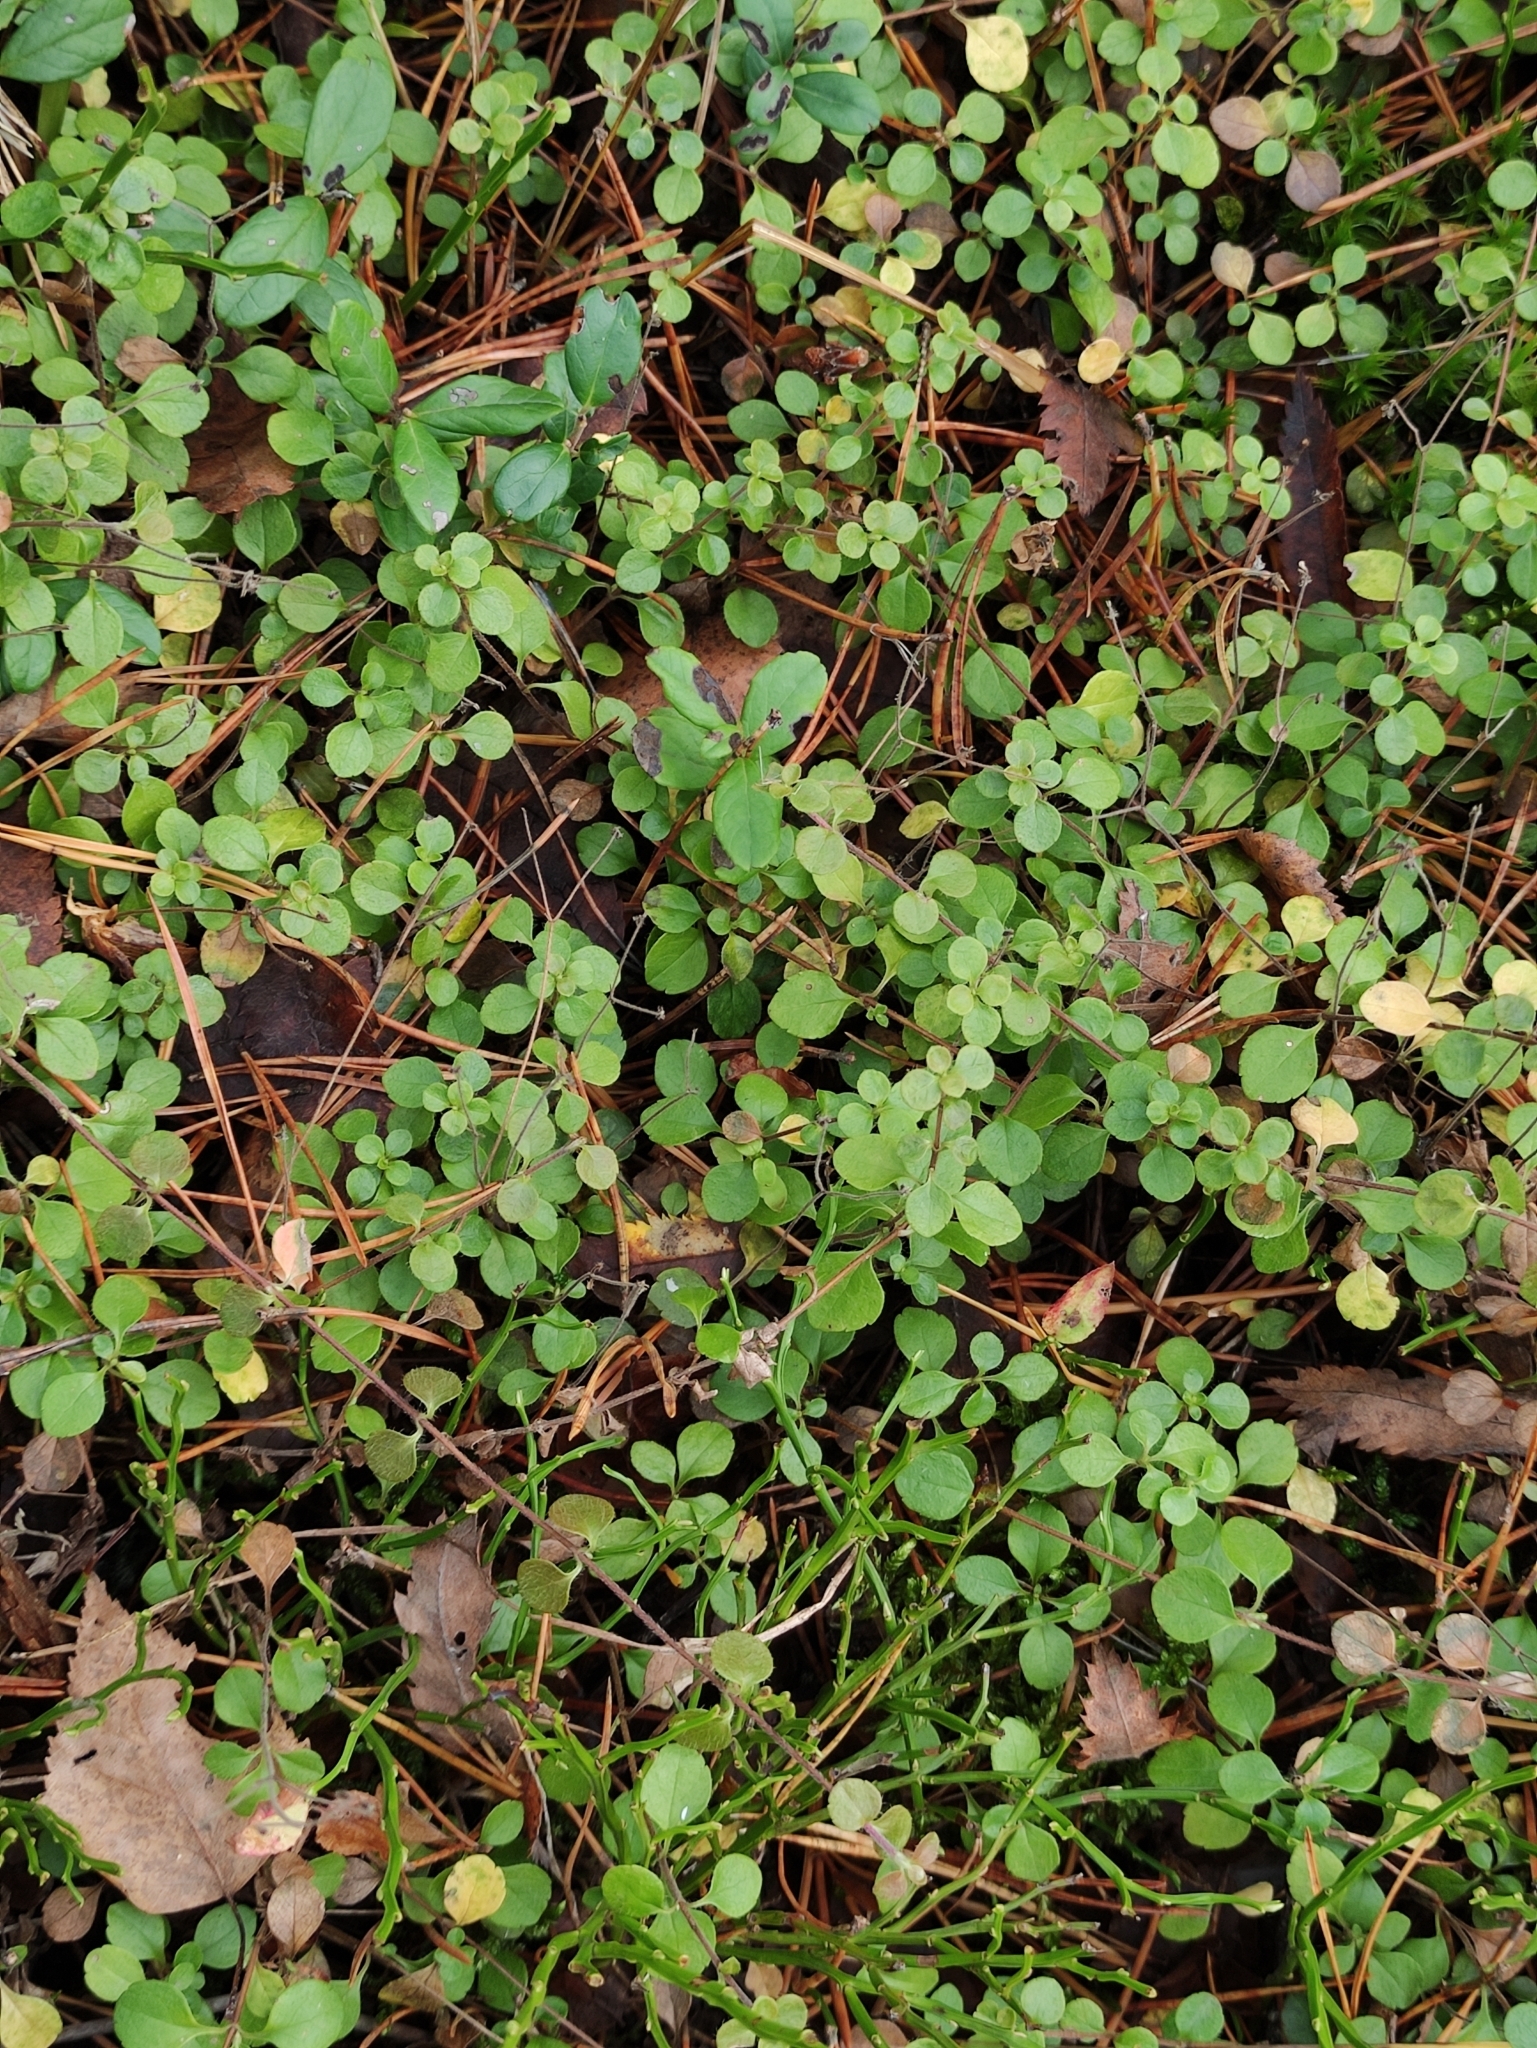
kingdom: Plantae
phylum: Tracheophyta
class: Magnoliopsida
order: Dipsacales
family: Caprifoliaceae
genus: Linnaea
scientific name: Linnaea borealis
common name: Twinflower
